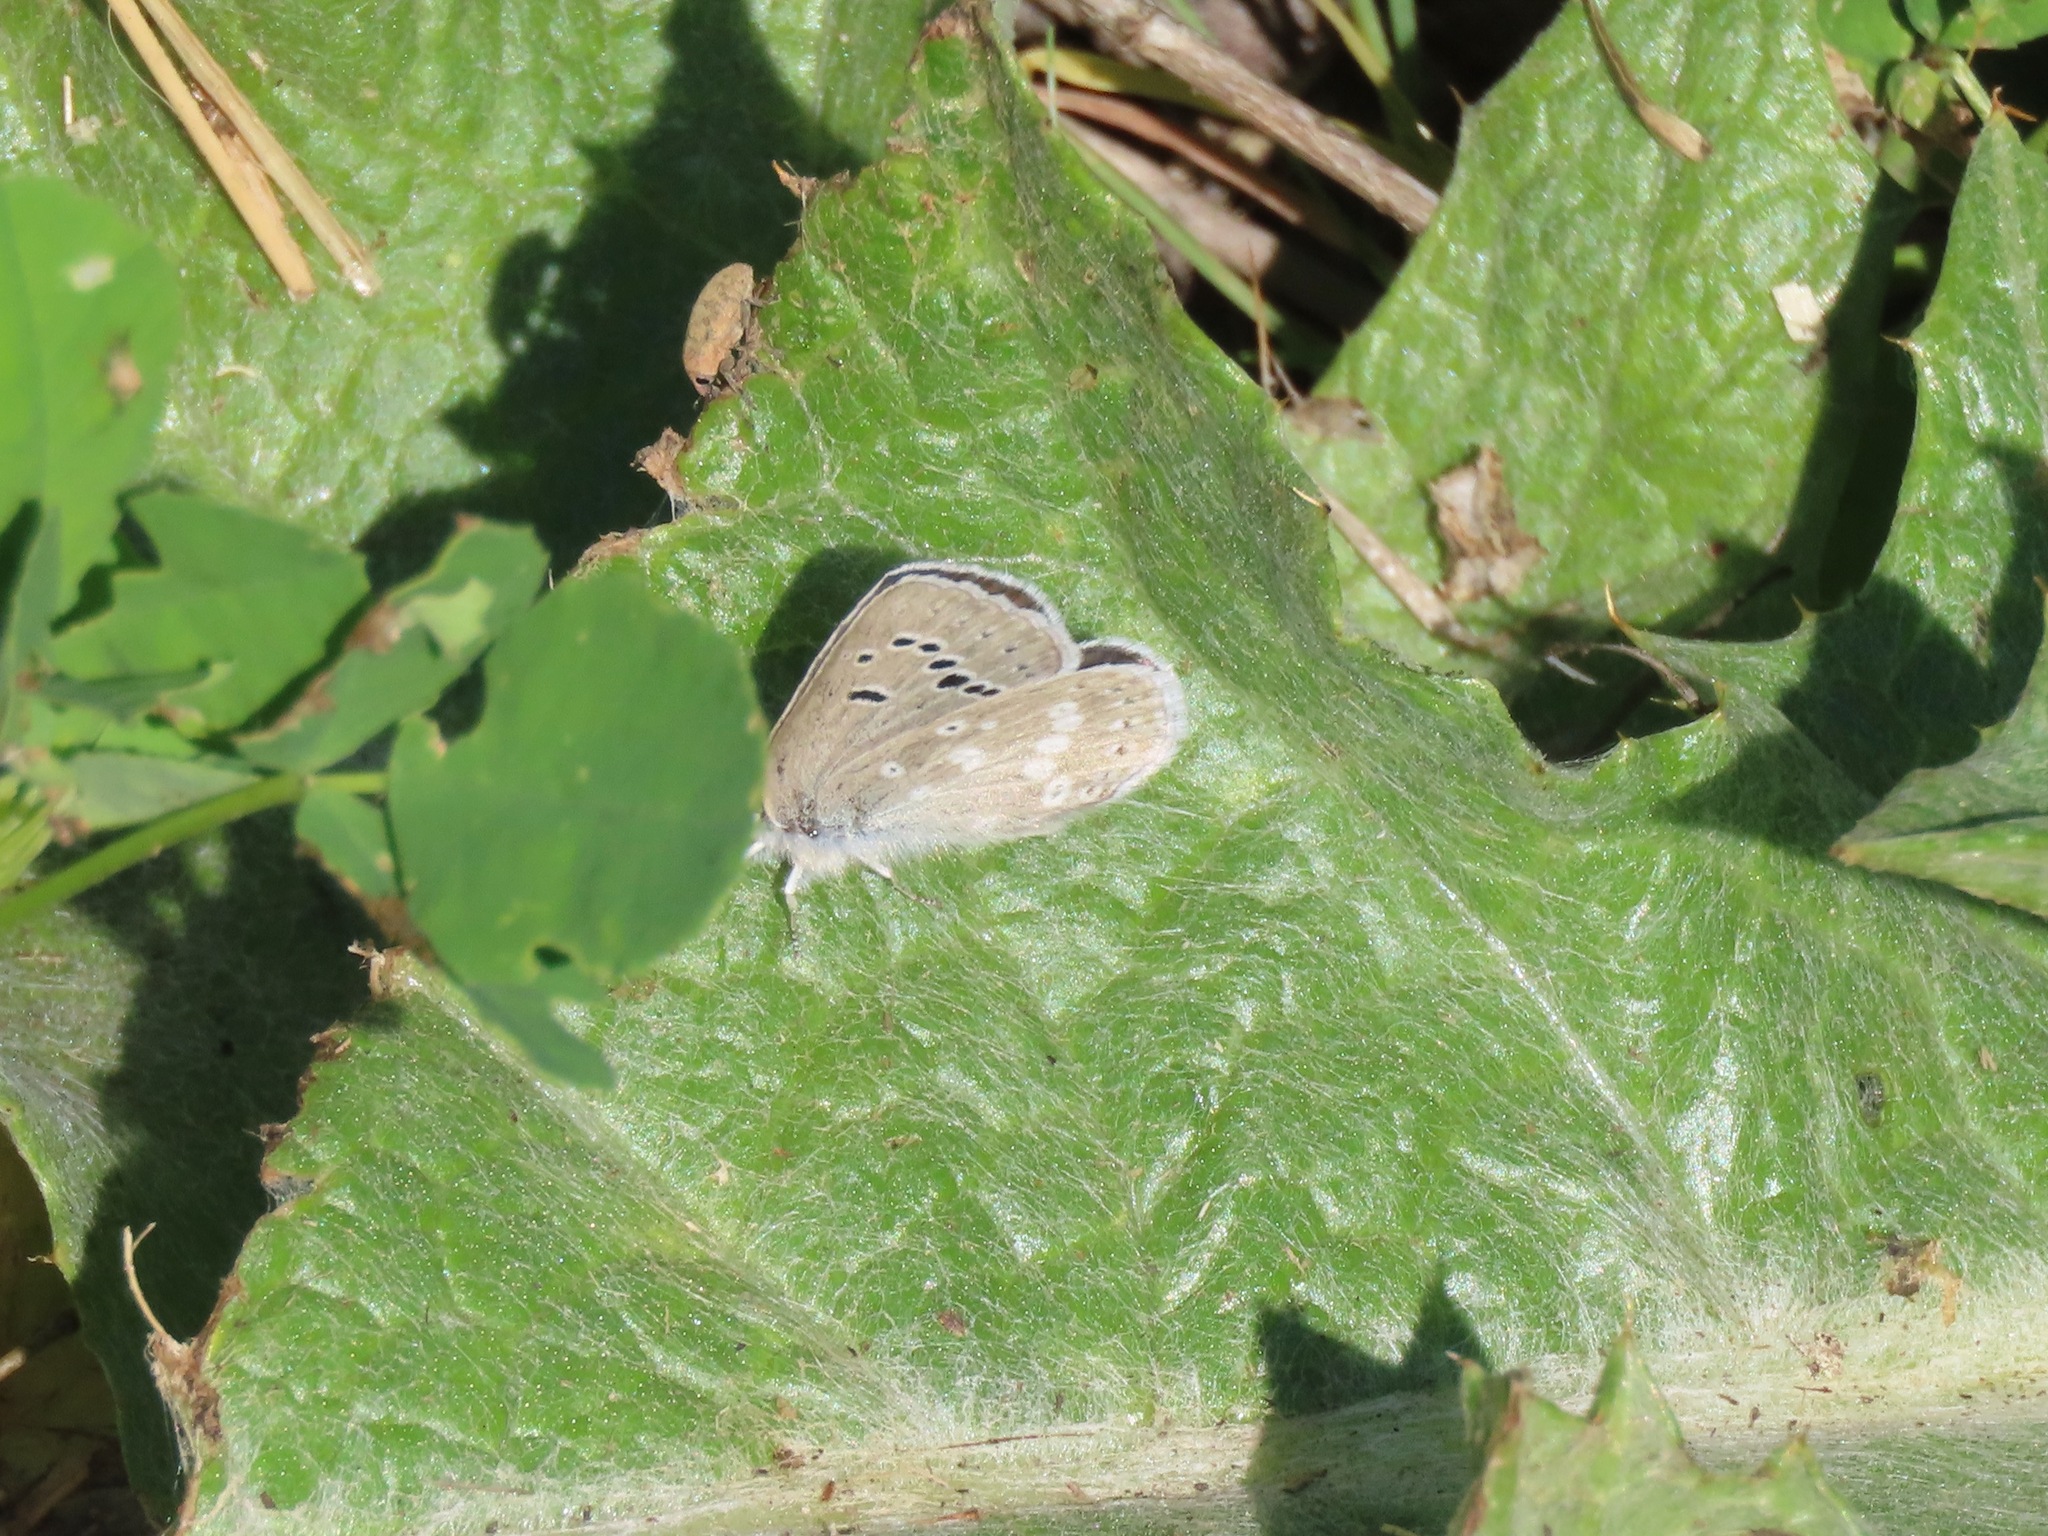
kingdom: Animalia
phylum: Arthropoda
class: Insecta
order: Lepidoptera
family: Lycaenidae
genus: Icaricia
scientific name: Icaricia icarioides
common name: Boisduval's blue
